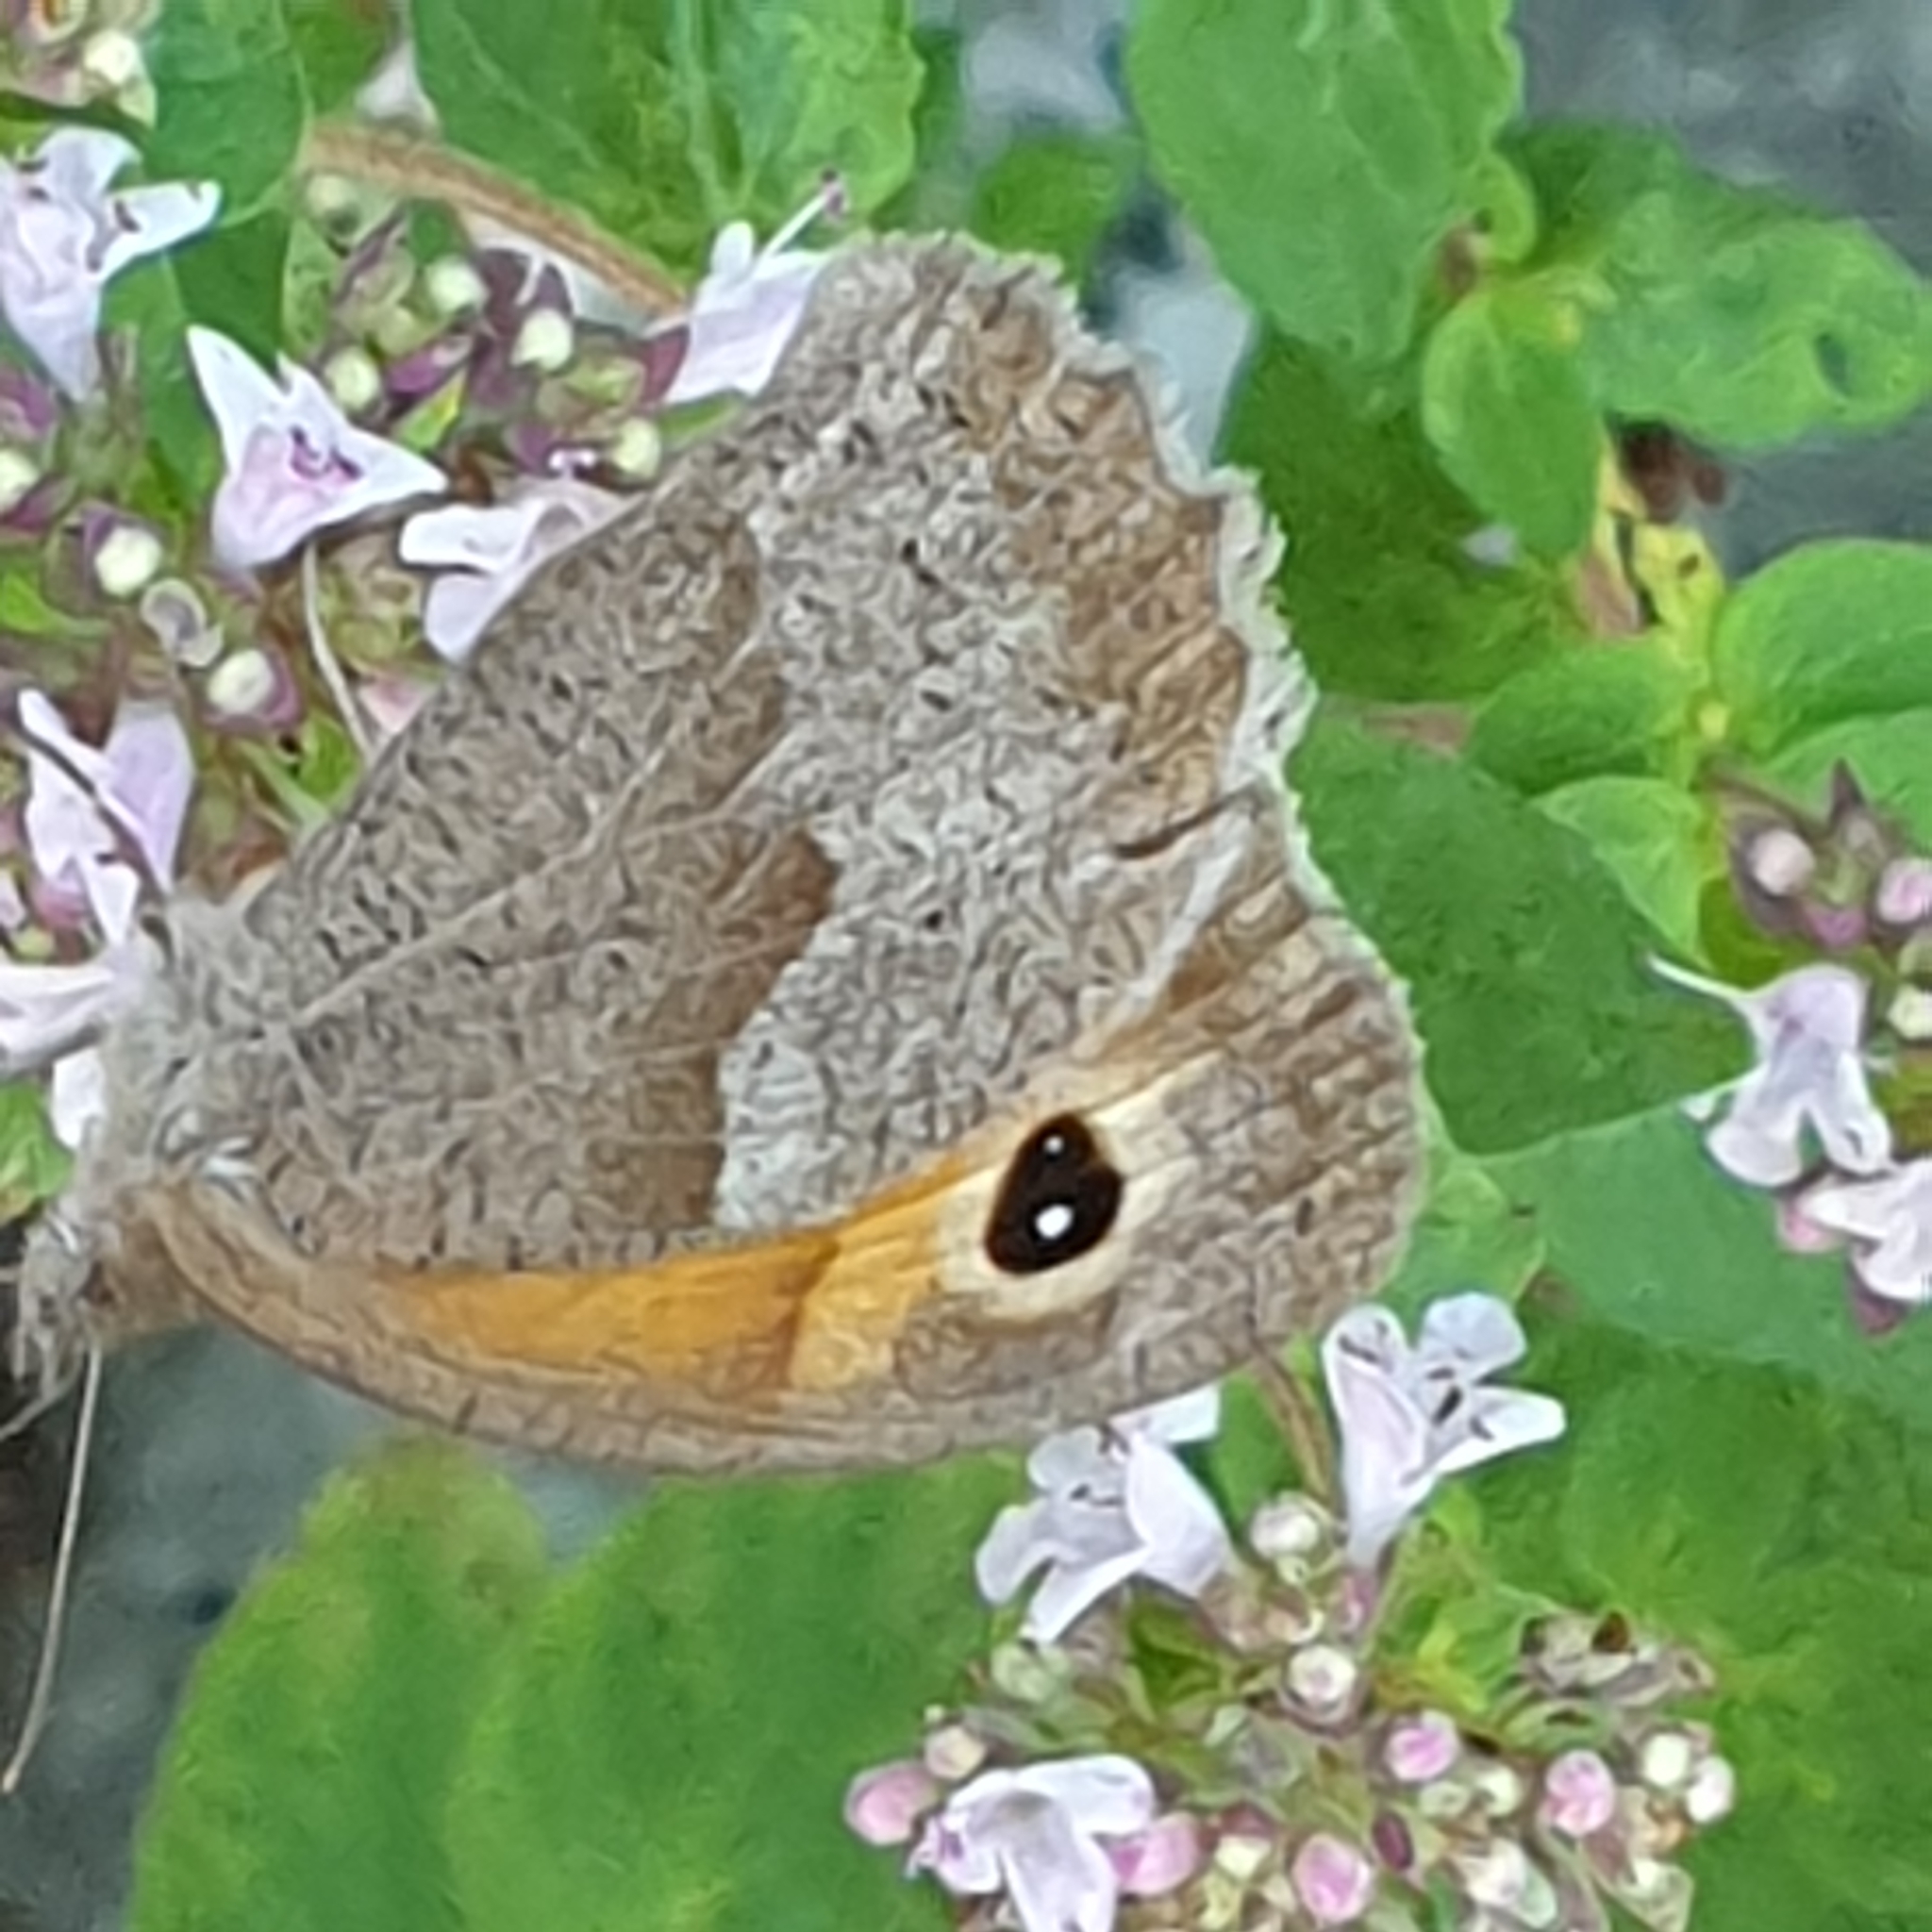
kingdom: Animalia
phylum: Arthropoda
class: Insecta
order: Lepidoptera
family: Nymphalidae
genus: Maniola
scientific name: Maniola jurtina
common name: Meadow brown
